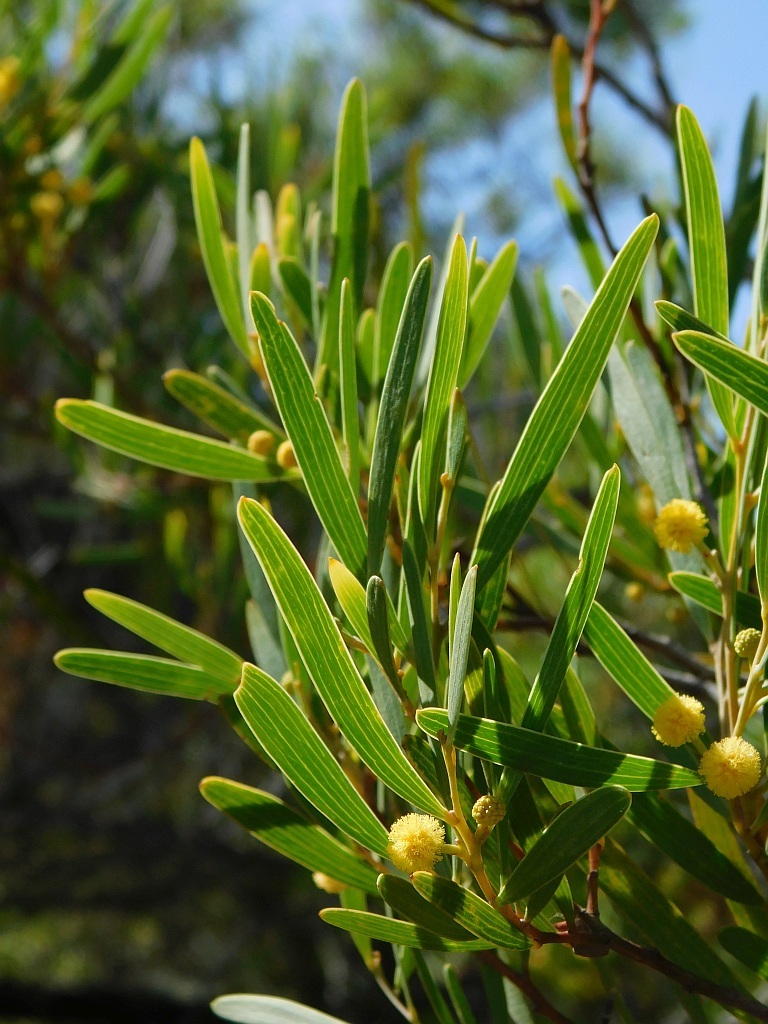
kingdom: Plantae
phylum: Tracheophyta
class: Magnoliopsida
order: Fabales
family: Fabaceae
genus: Acacia
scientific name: Acacia cyclops
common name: Coastal wattle
